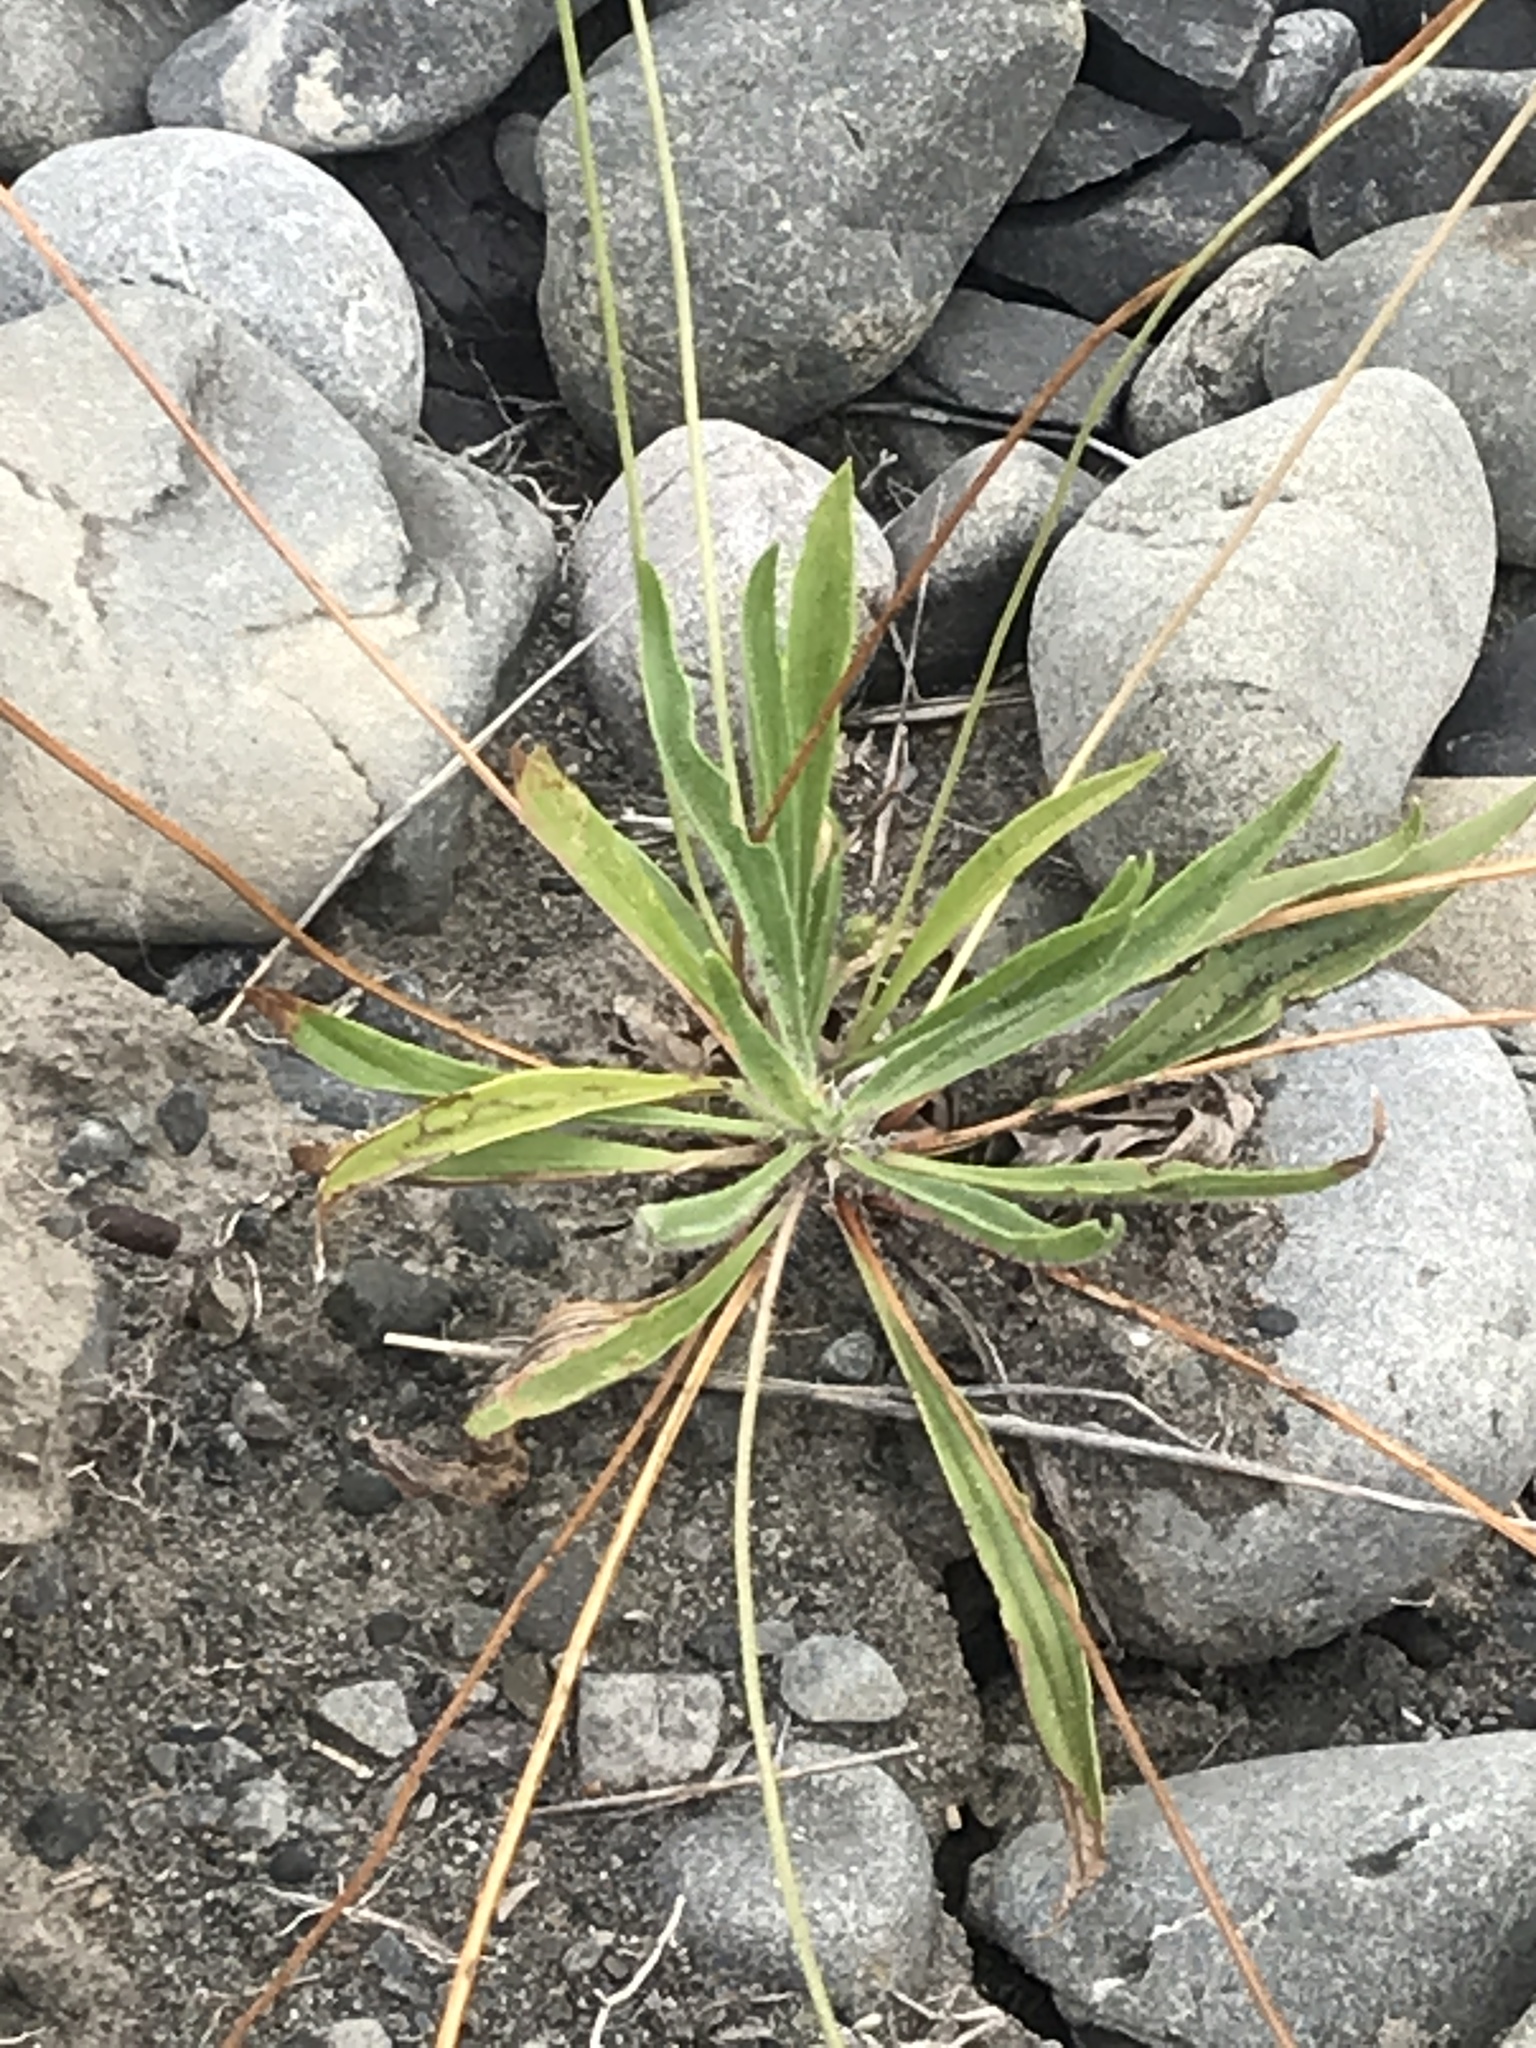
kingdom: Plantae
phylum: Tracheophyta
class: Magnoliopsida
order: Lamiales
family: Plantaginaceae
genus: Plantago
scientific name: Plantago lanceolata
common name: Ribwort plantain
